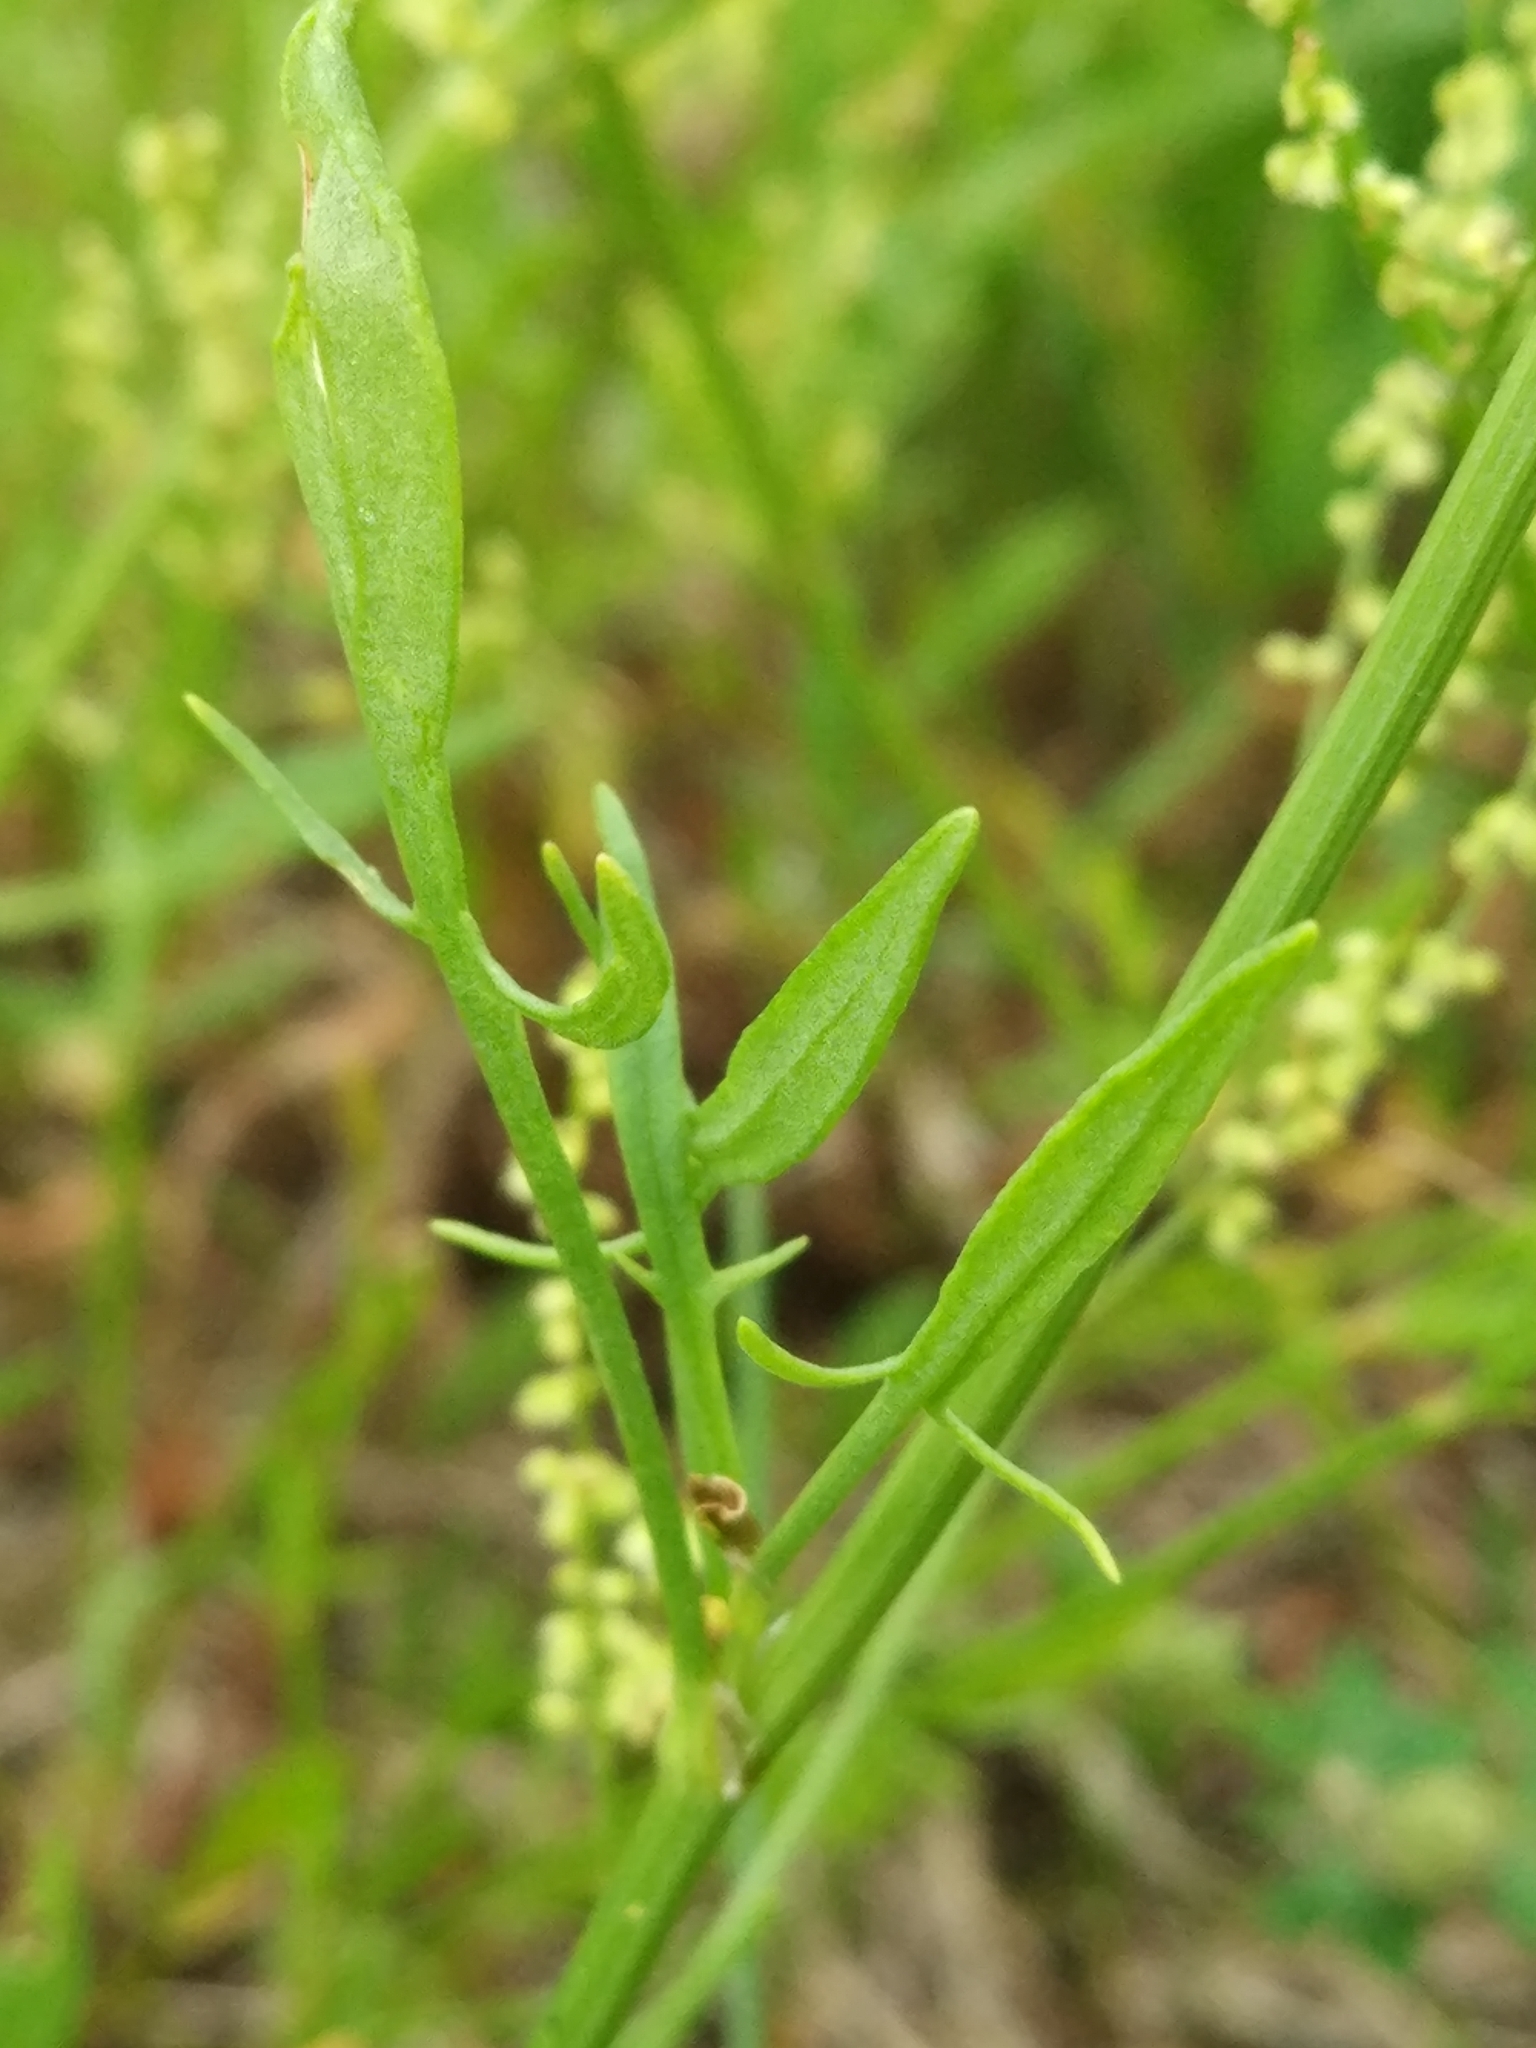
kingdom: Plantae
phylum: Tracheophyta
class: Magnoliopsida
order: Caryophyllales
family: Polygonaceae
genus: Rumex
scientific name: Rumex acetosella
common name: Common sheep sorrel
